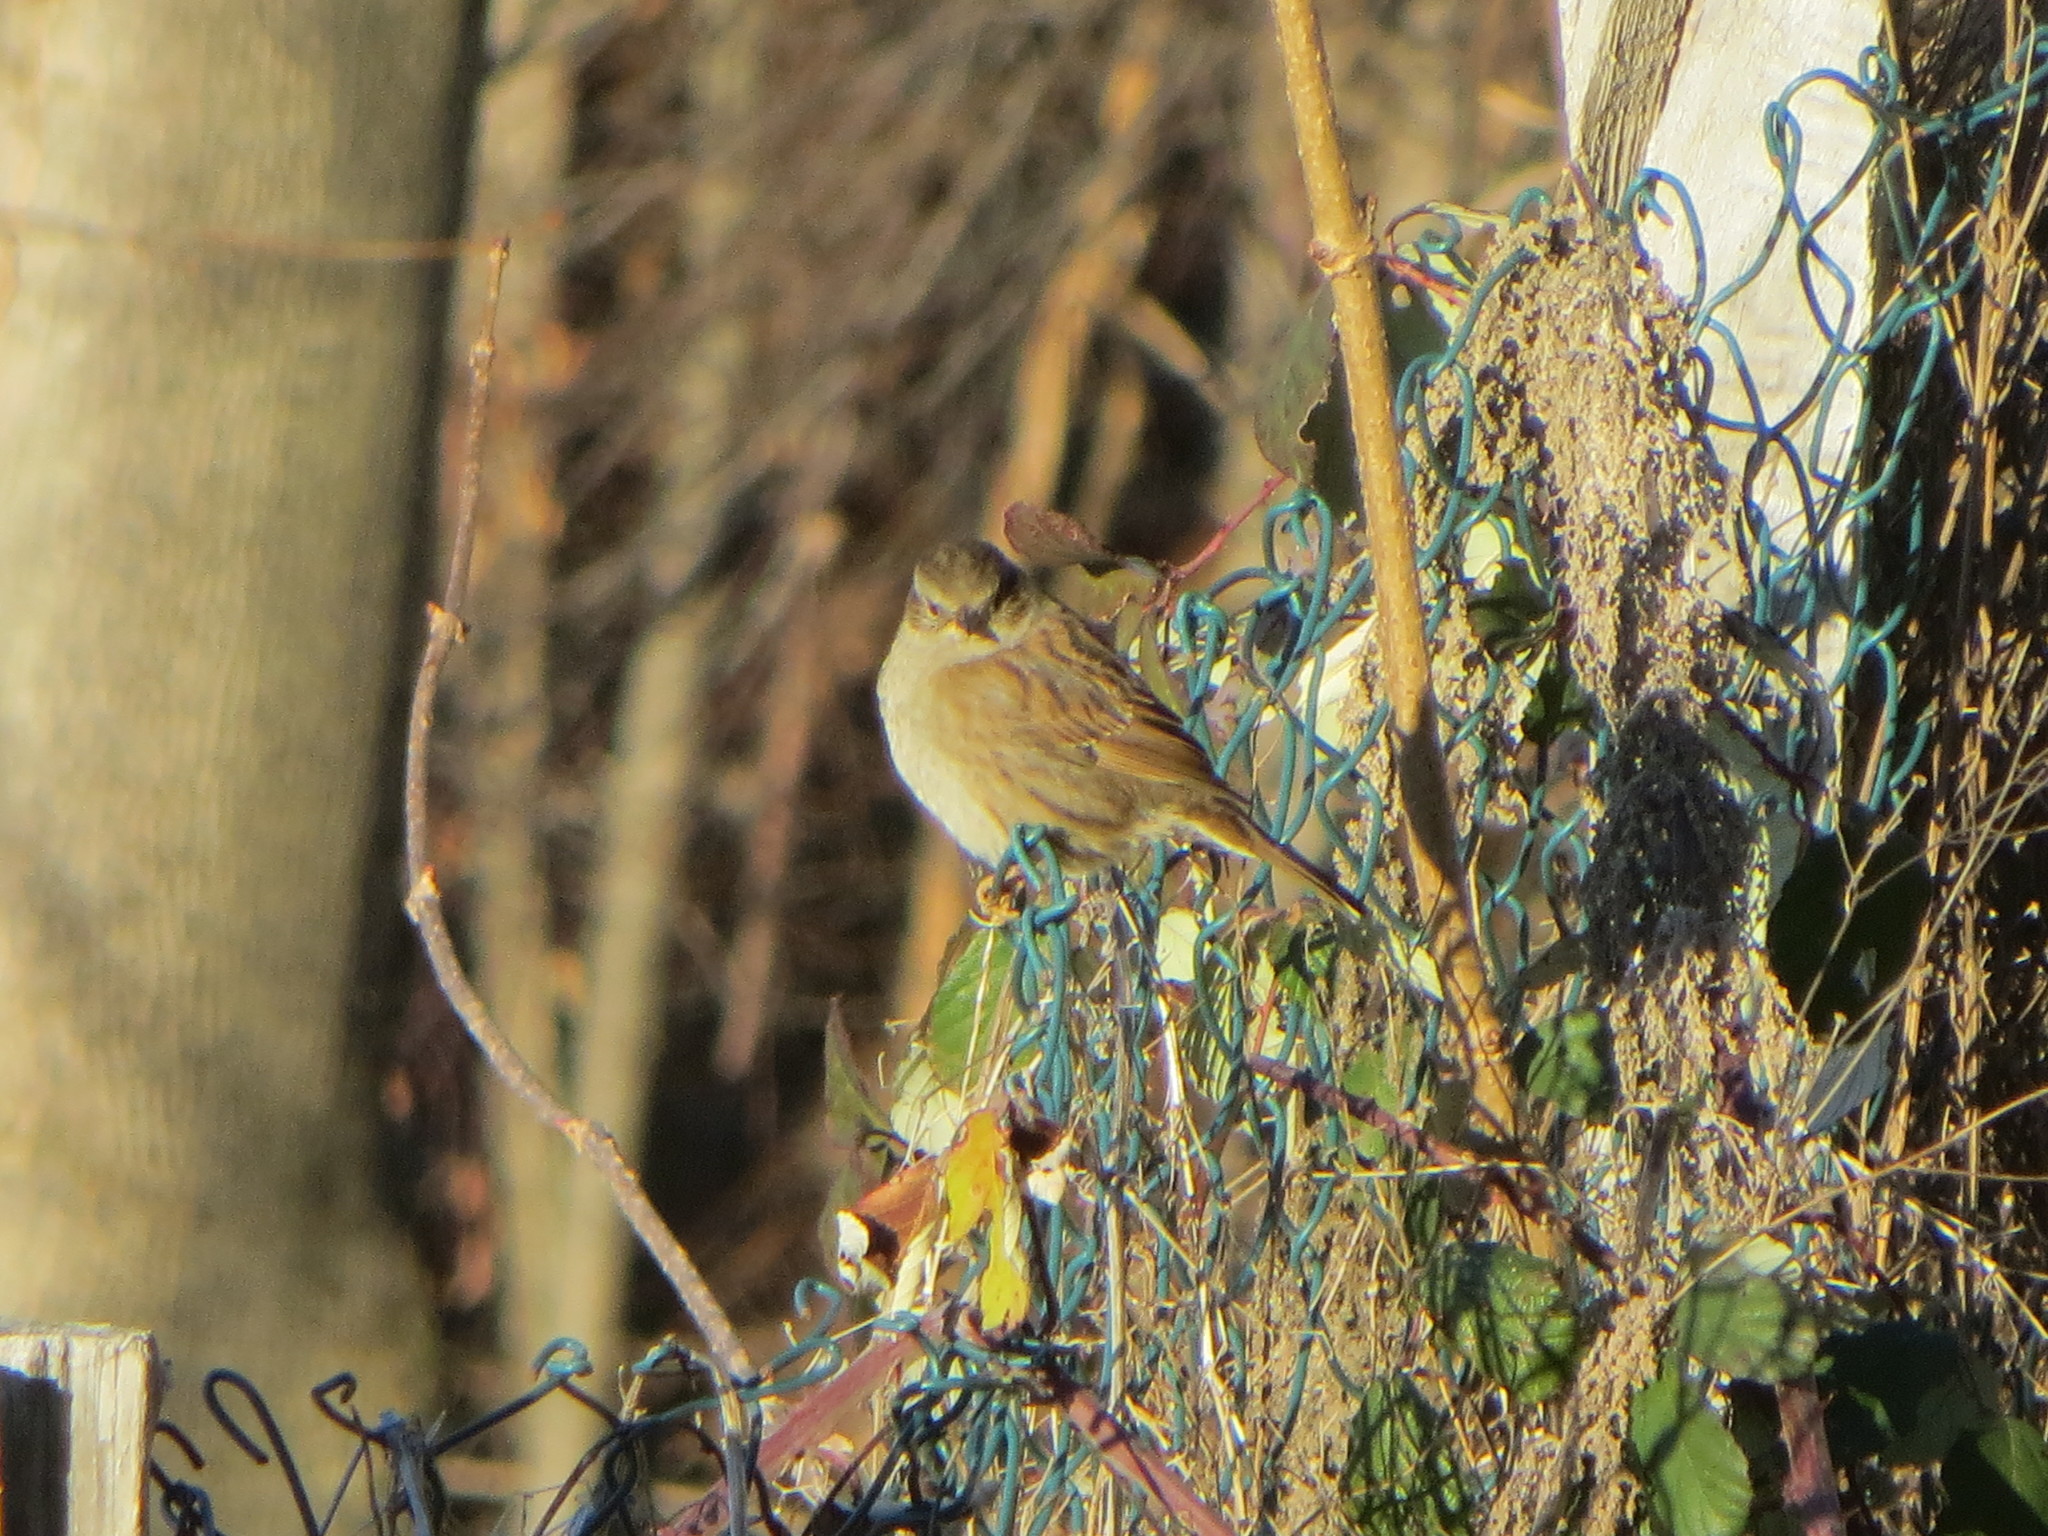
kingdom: Animalia
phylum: Chordata
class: Aves
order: Passeriformes
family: Prunellidae
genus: Prunella
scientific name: Prunella modularis
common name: Dunnock
